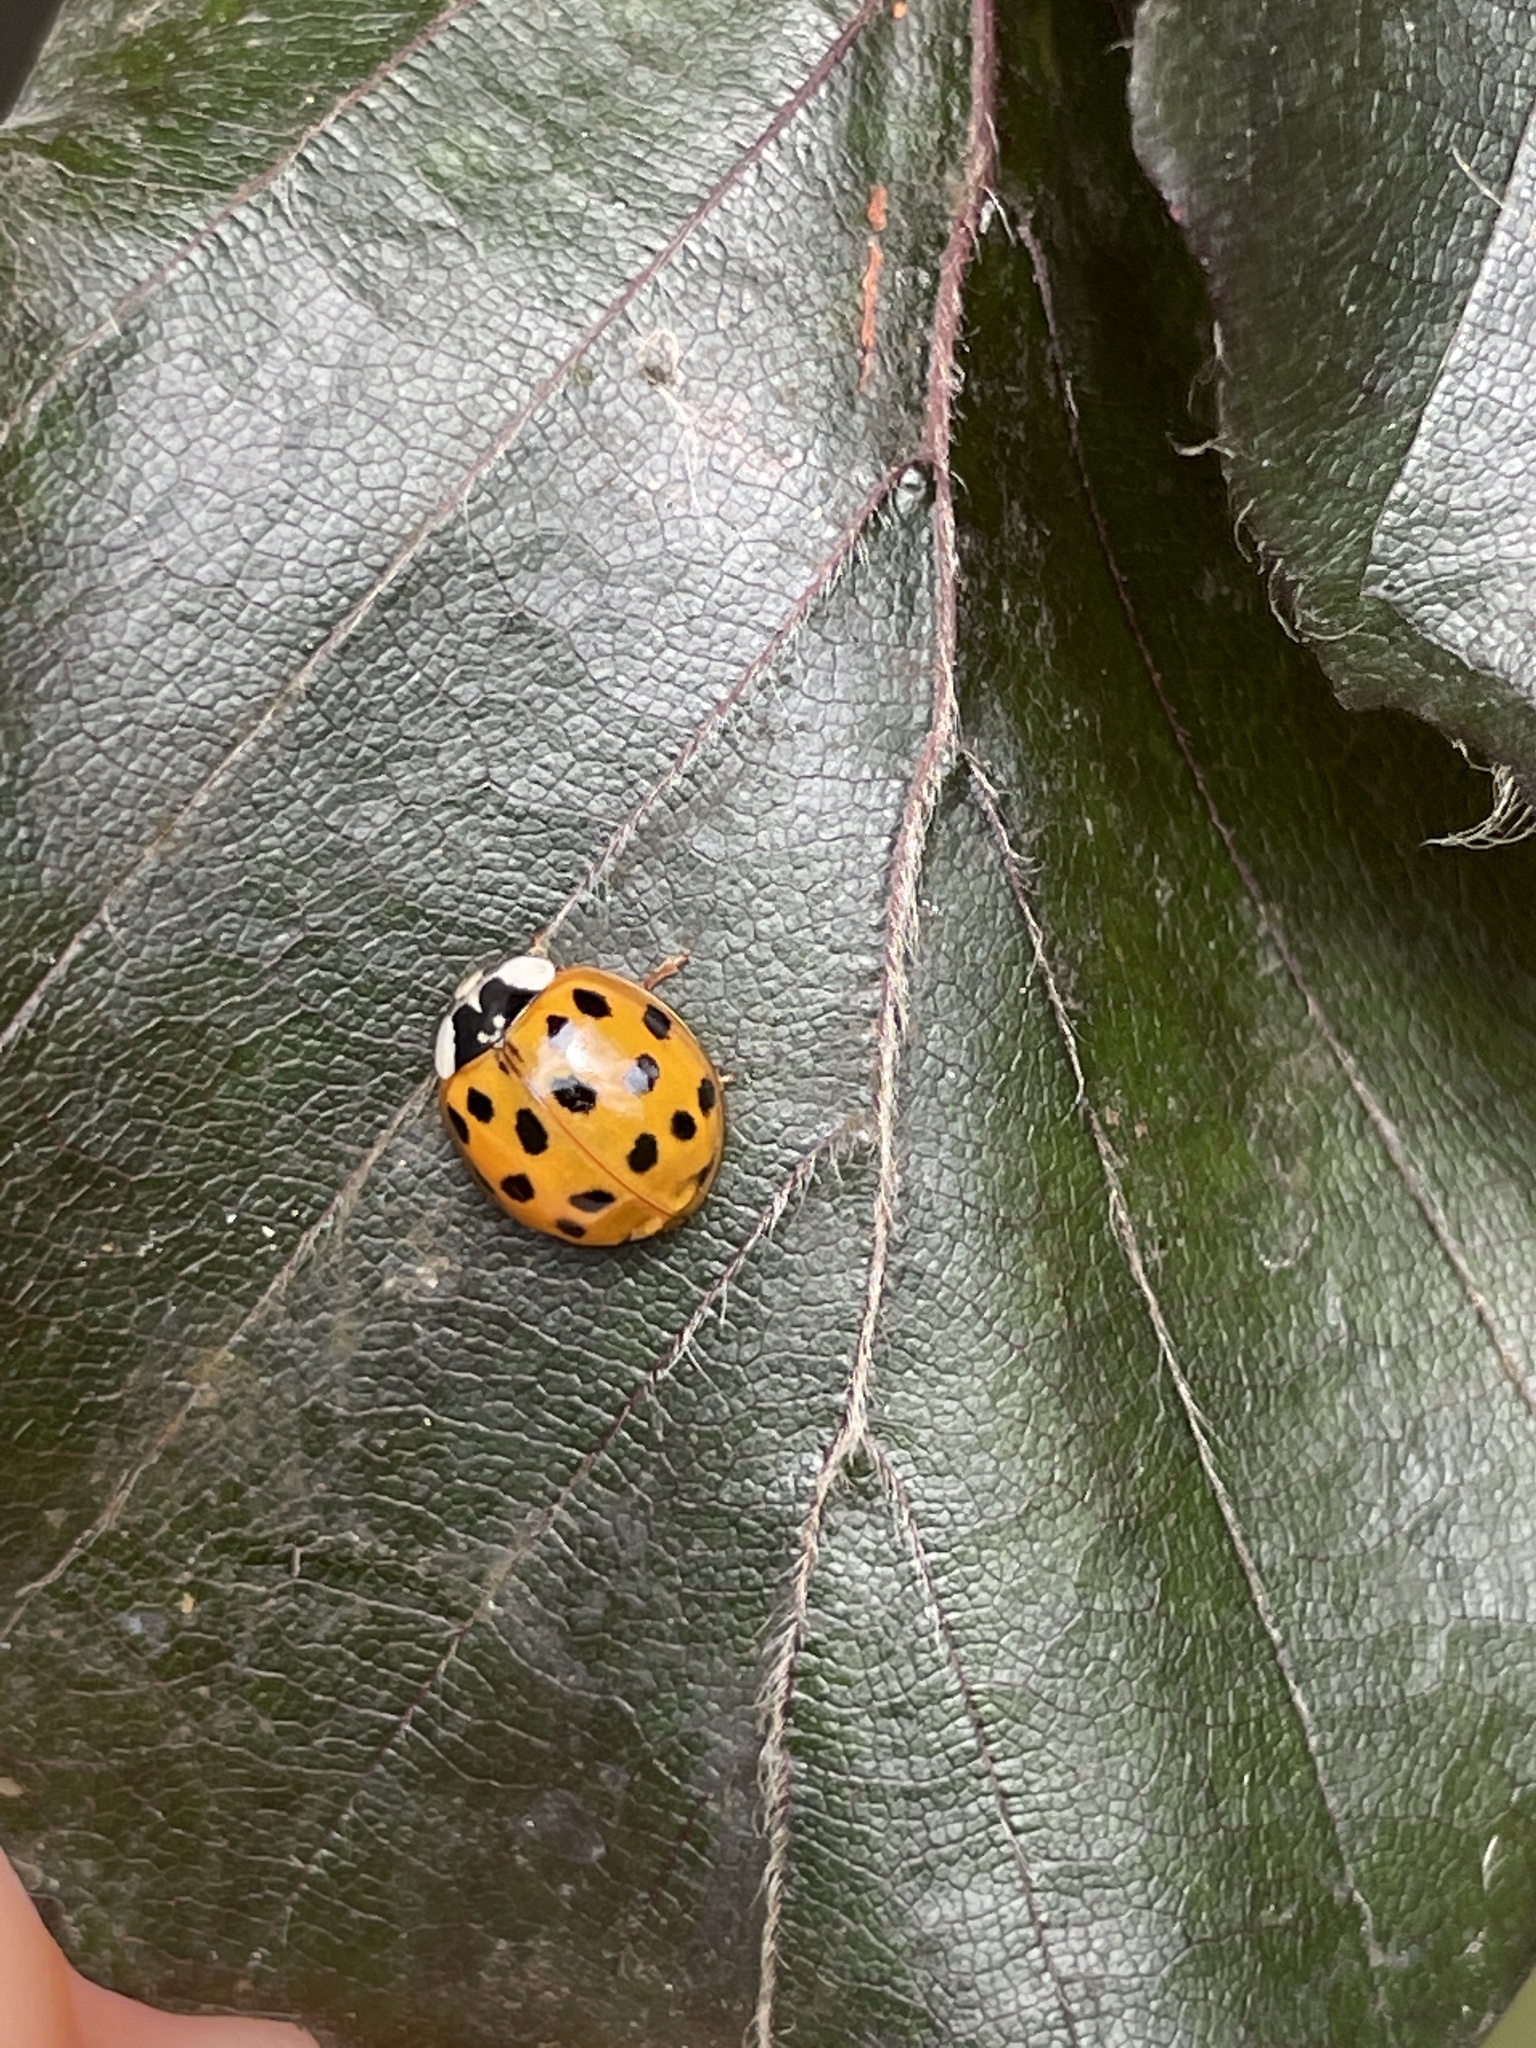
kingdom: Animalia
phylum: Arthropoda
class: Insecta
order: Coleoptera
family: Coccinellidae
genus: Harmonia
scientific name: Harmonia axyridis
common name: Harlequin ladybird
